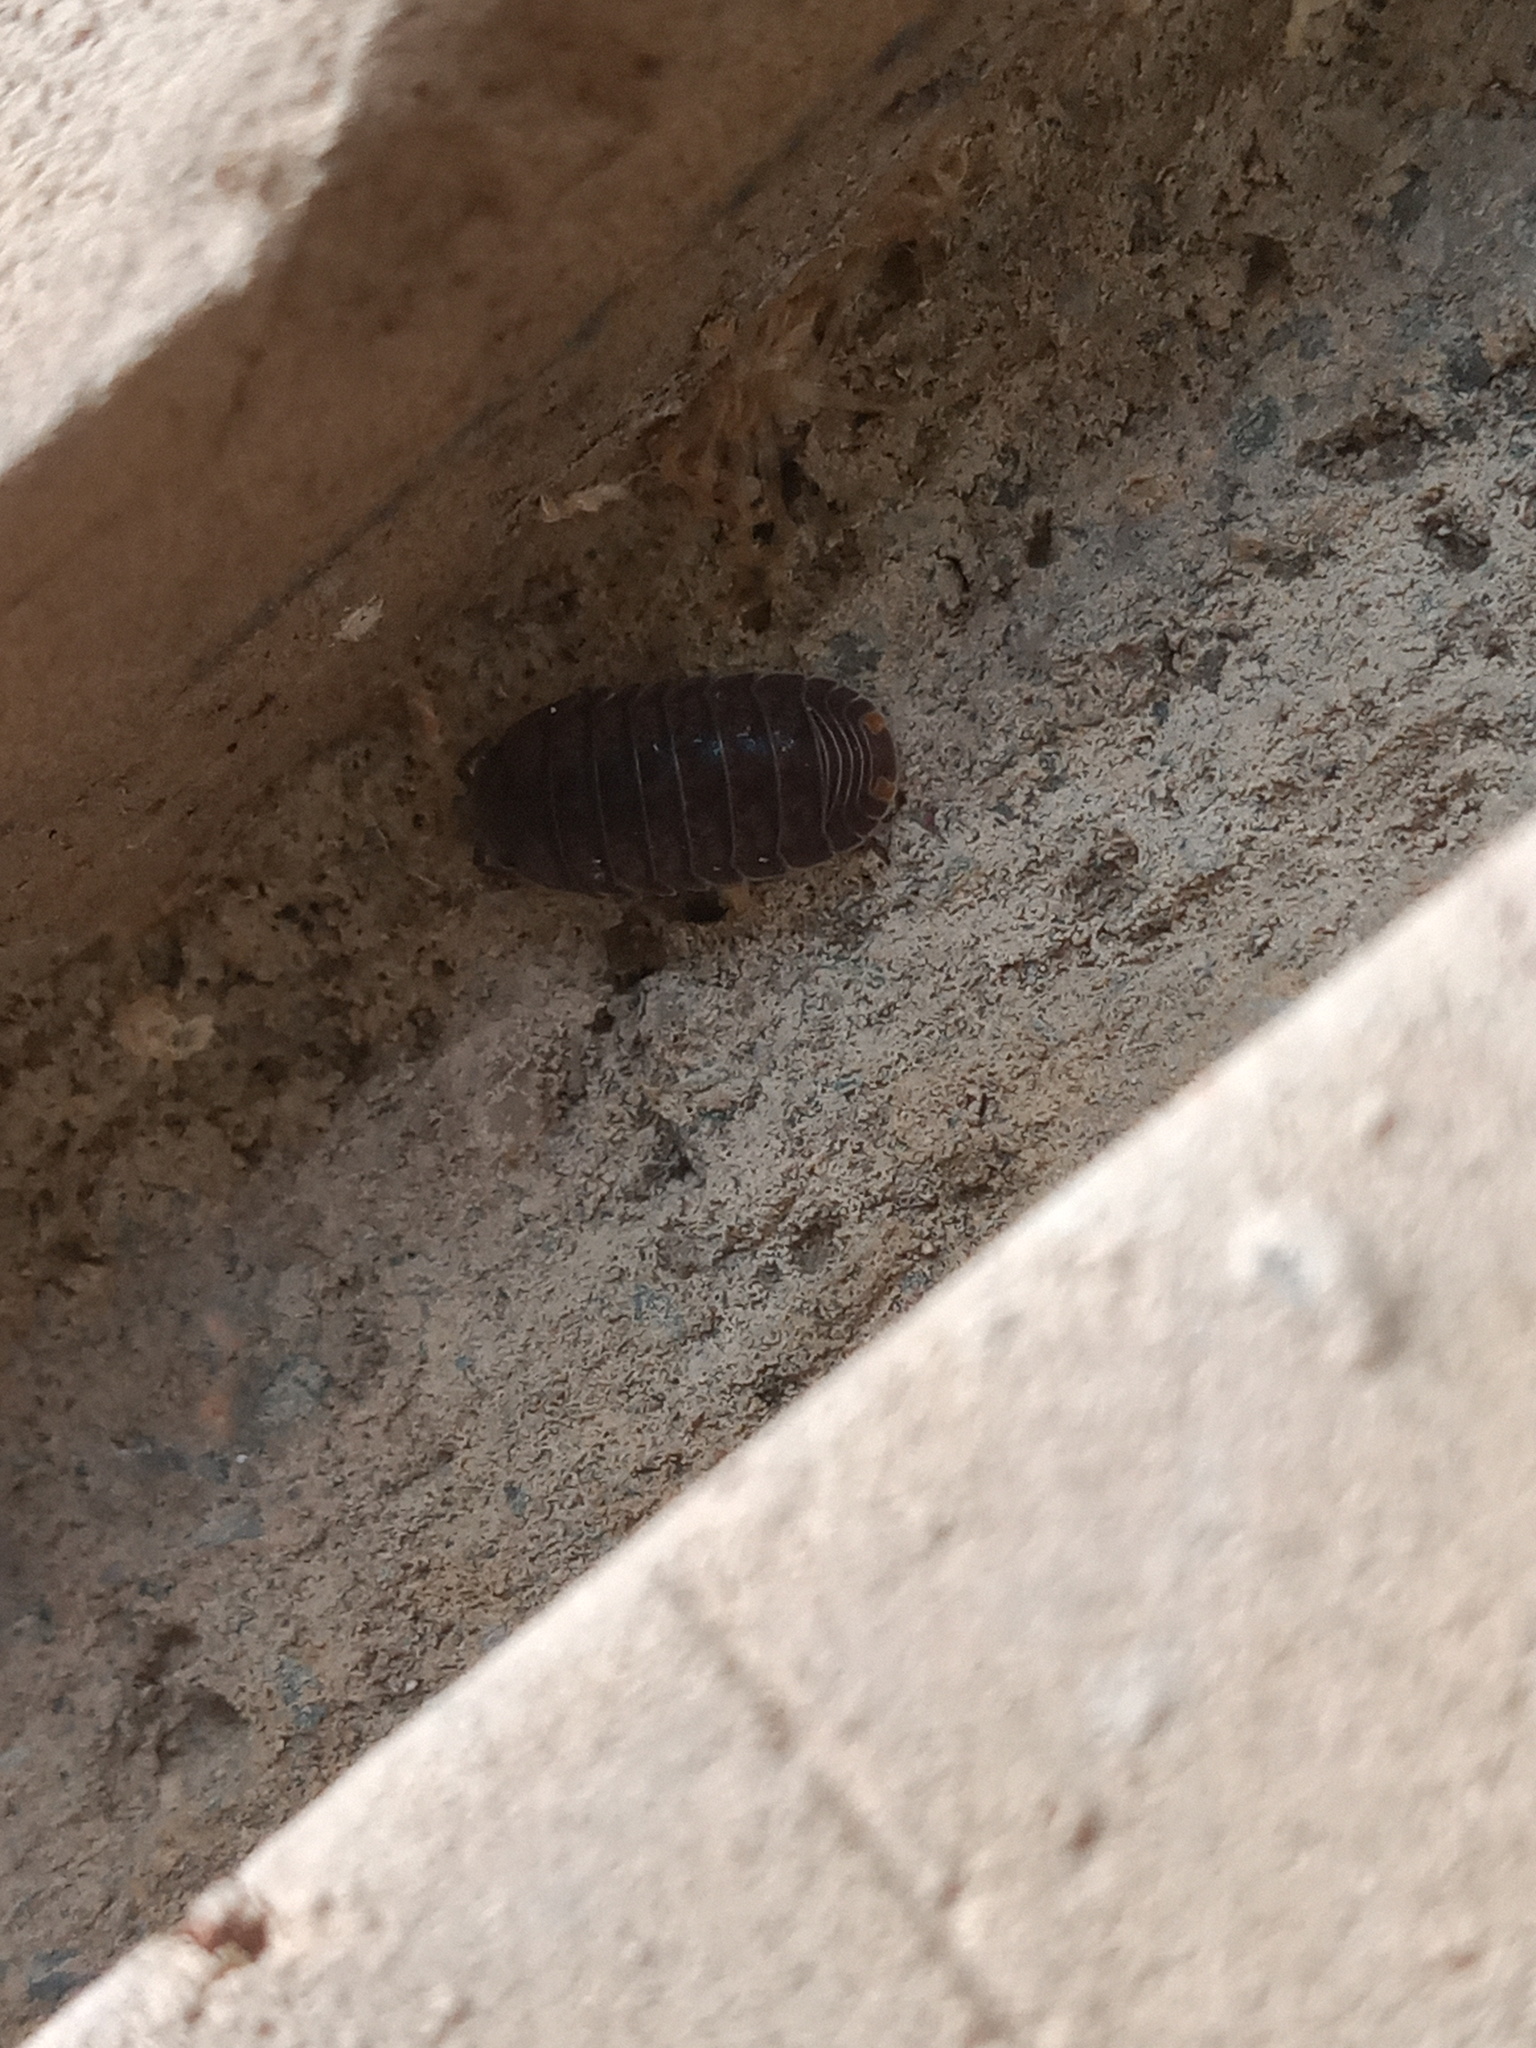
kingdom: Animalia
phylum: Arthropoda
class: Malacostraca
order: Isopoda
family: Armadillidae
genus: Cubaris
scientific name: Cubaris murina
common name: Pillbug
